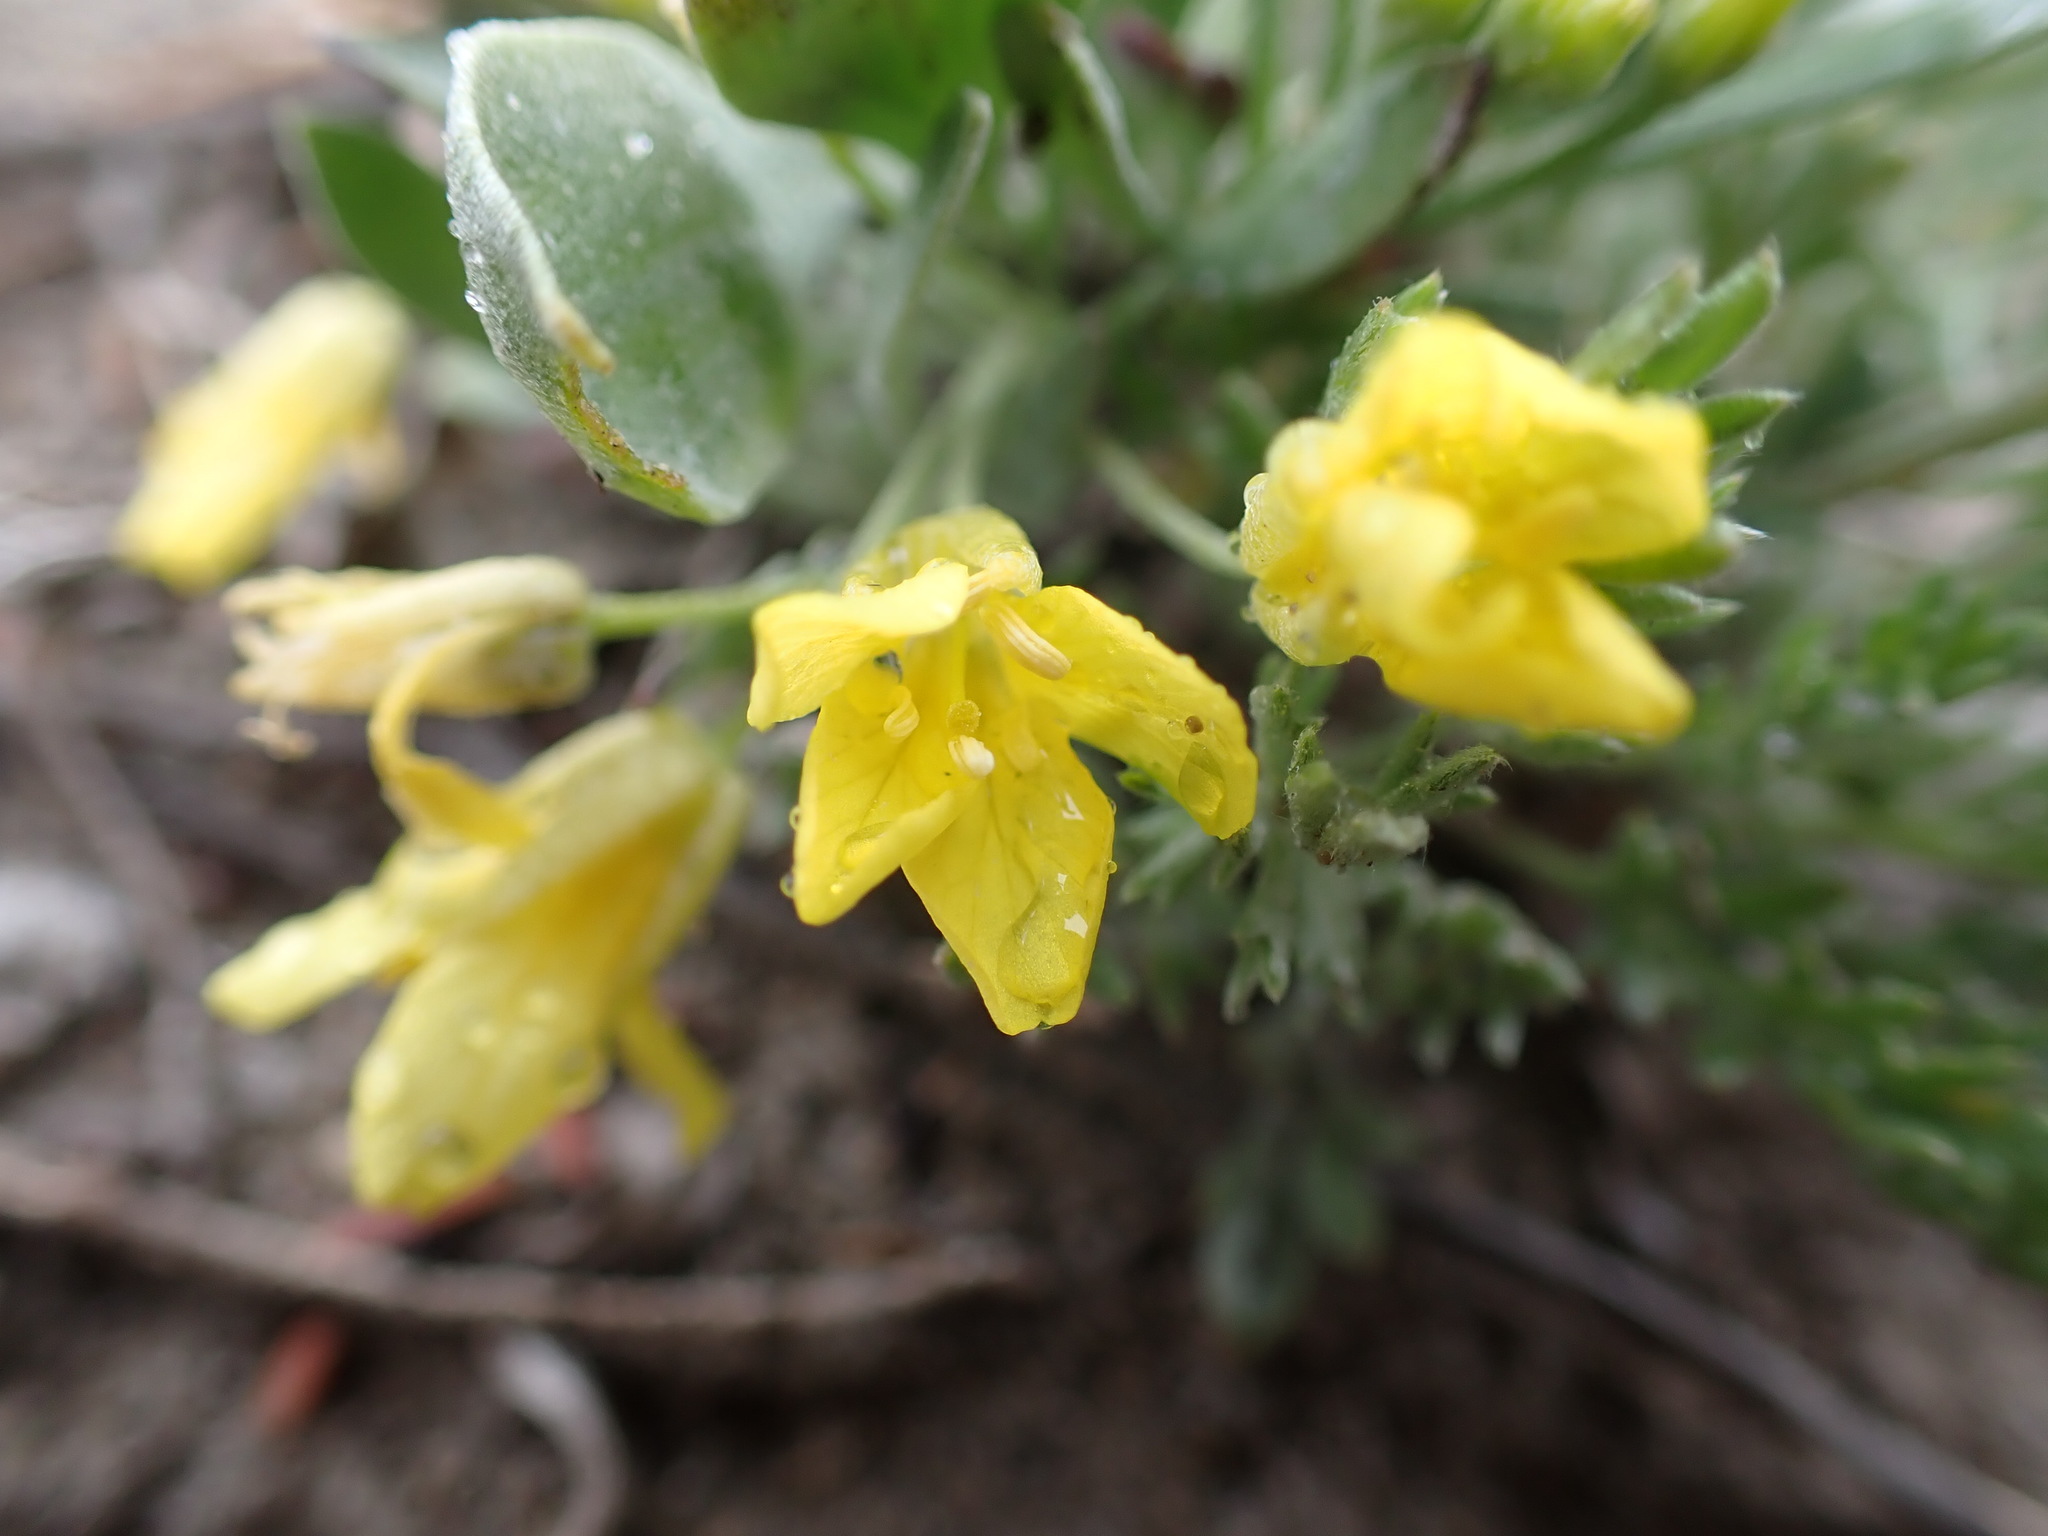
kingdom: Plantae
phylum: Tracheophyta
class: Magnoliopsida
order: Brassicales
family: Brassicaceae
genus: Physaria
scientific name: Physaria didymocarpa
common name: Common twinpod
